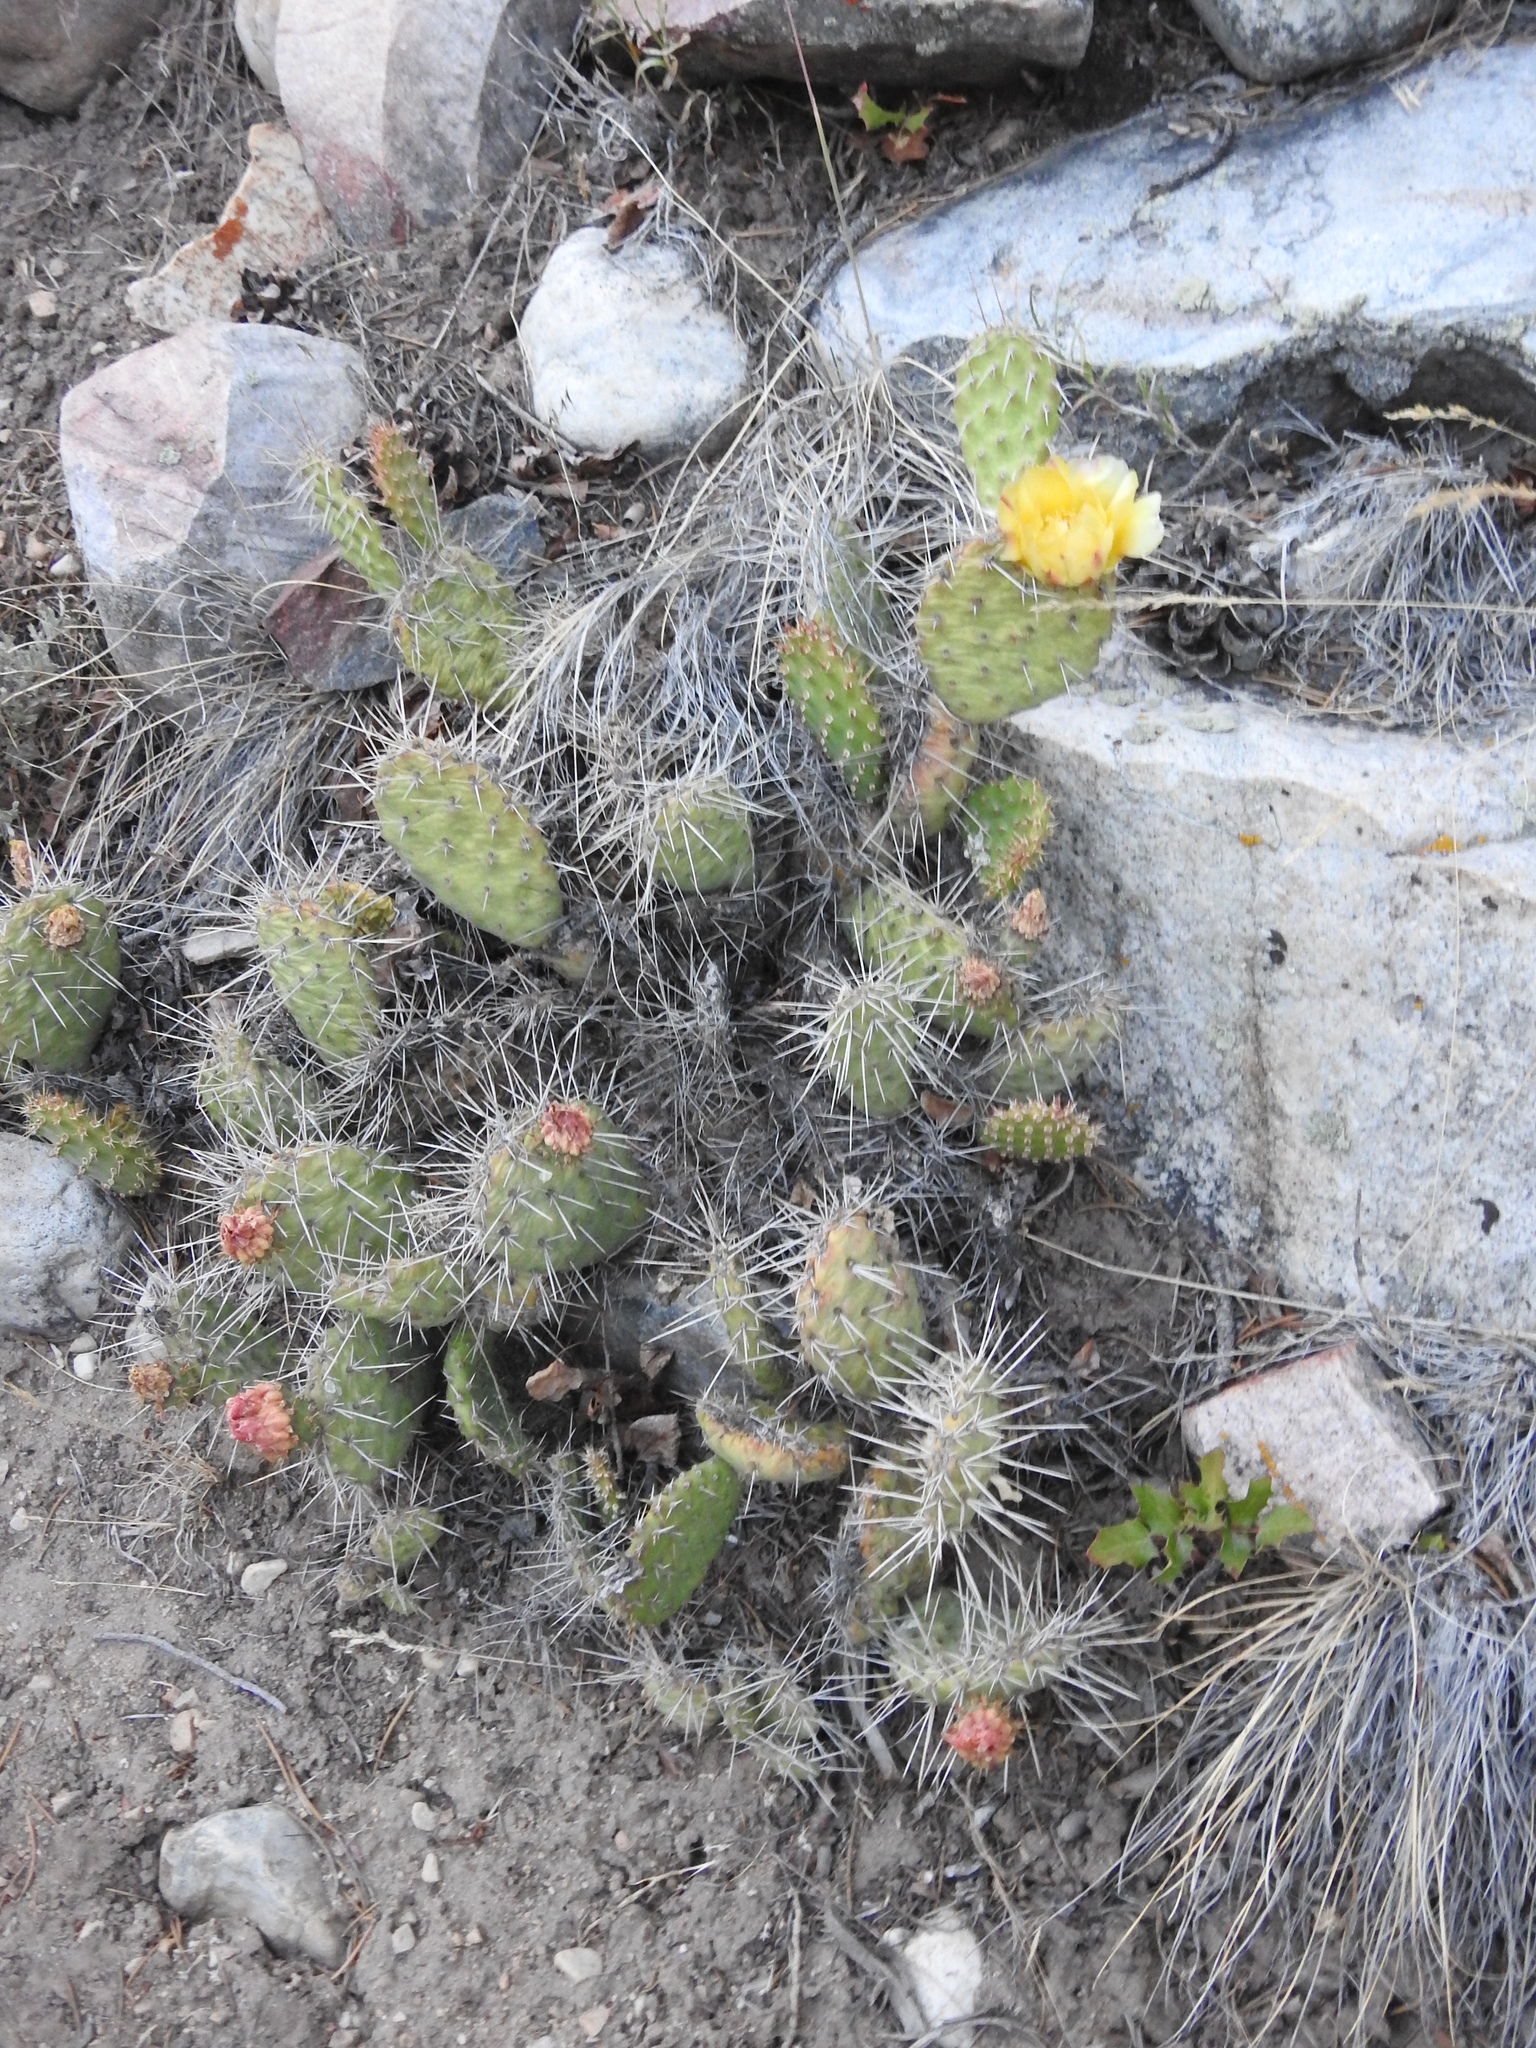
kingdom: Plantae
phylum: Tracheophyta
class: Magnoliopsida
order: Caryophyllales
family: Cactaceae
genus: Opuntia
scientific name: Opuntia polyacantha
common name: Plains prickly-pear
